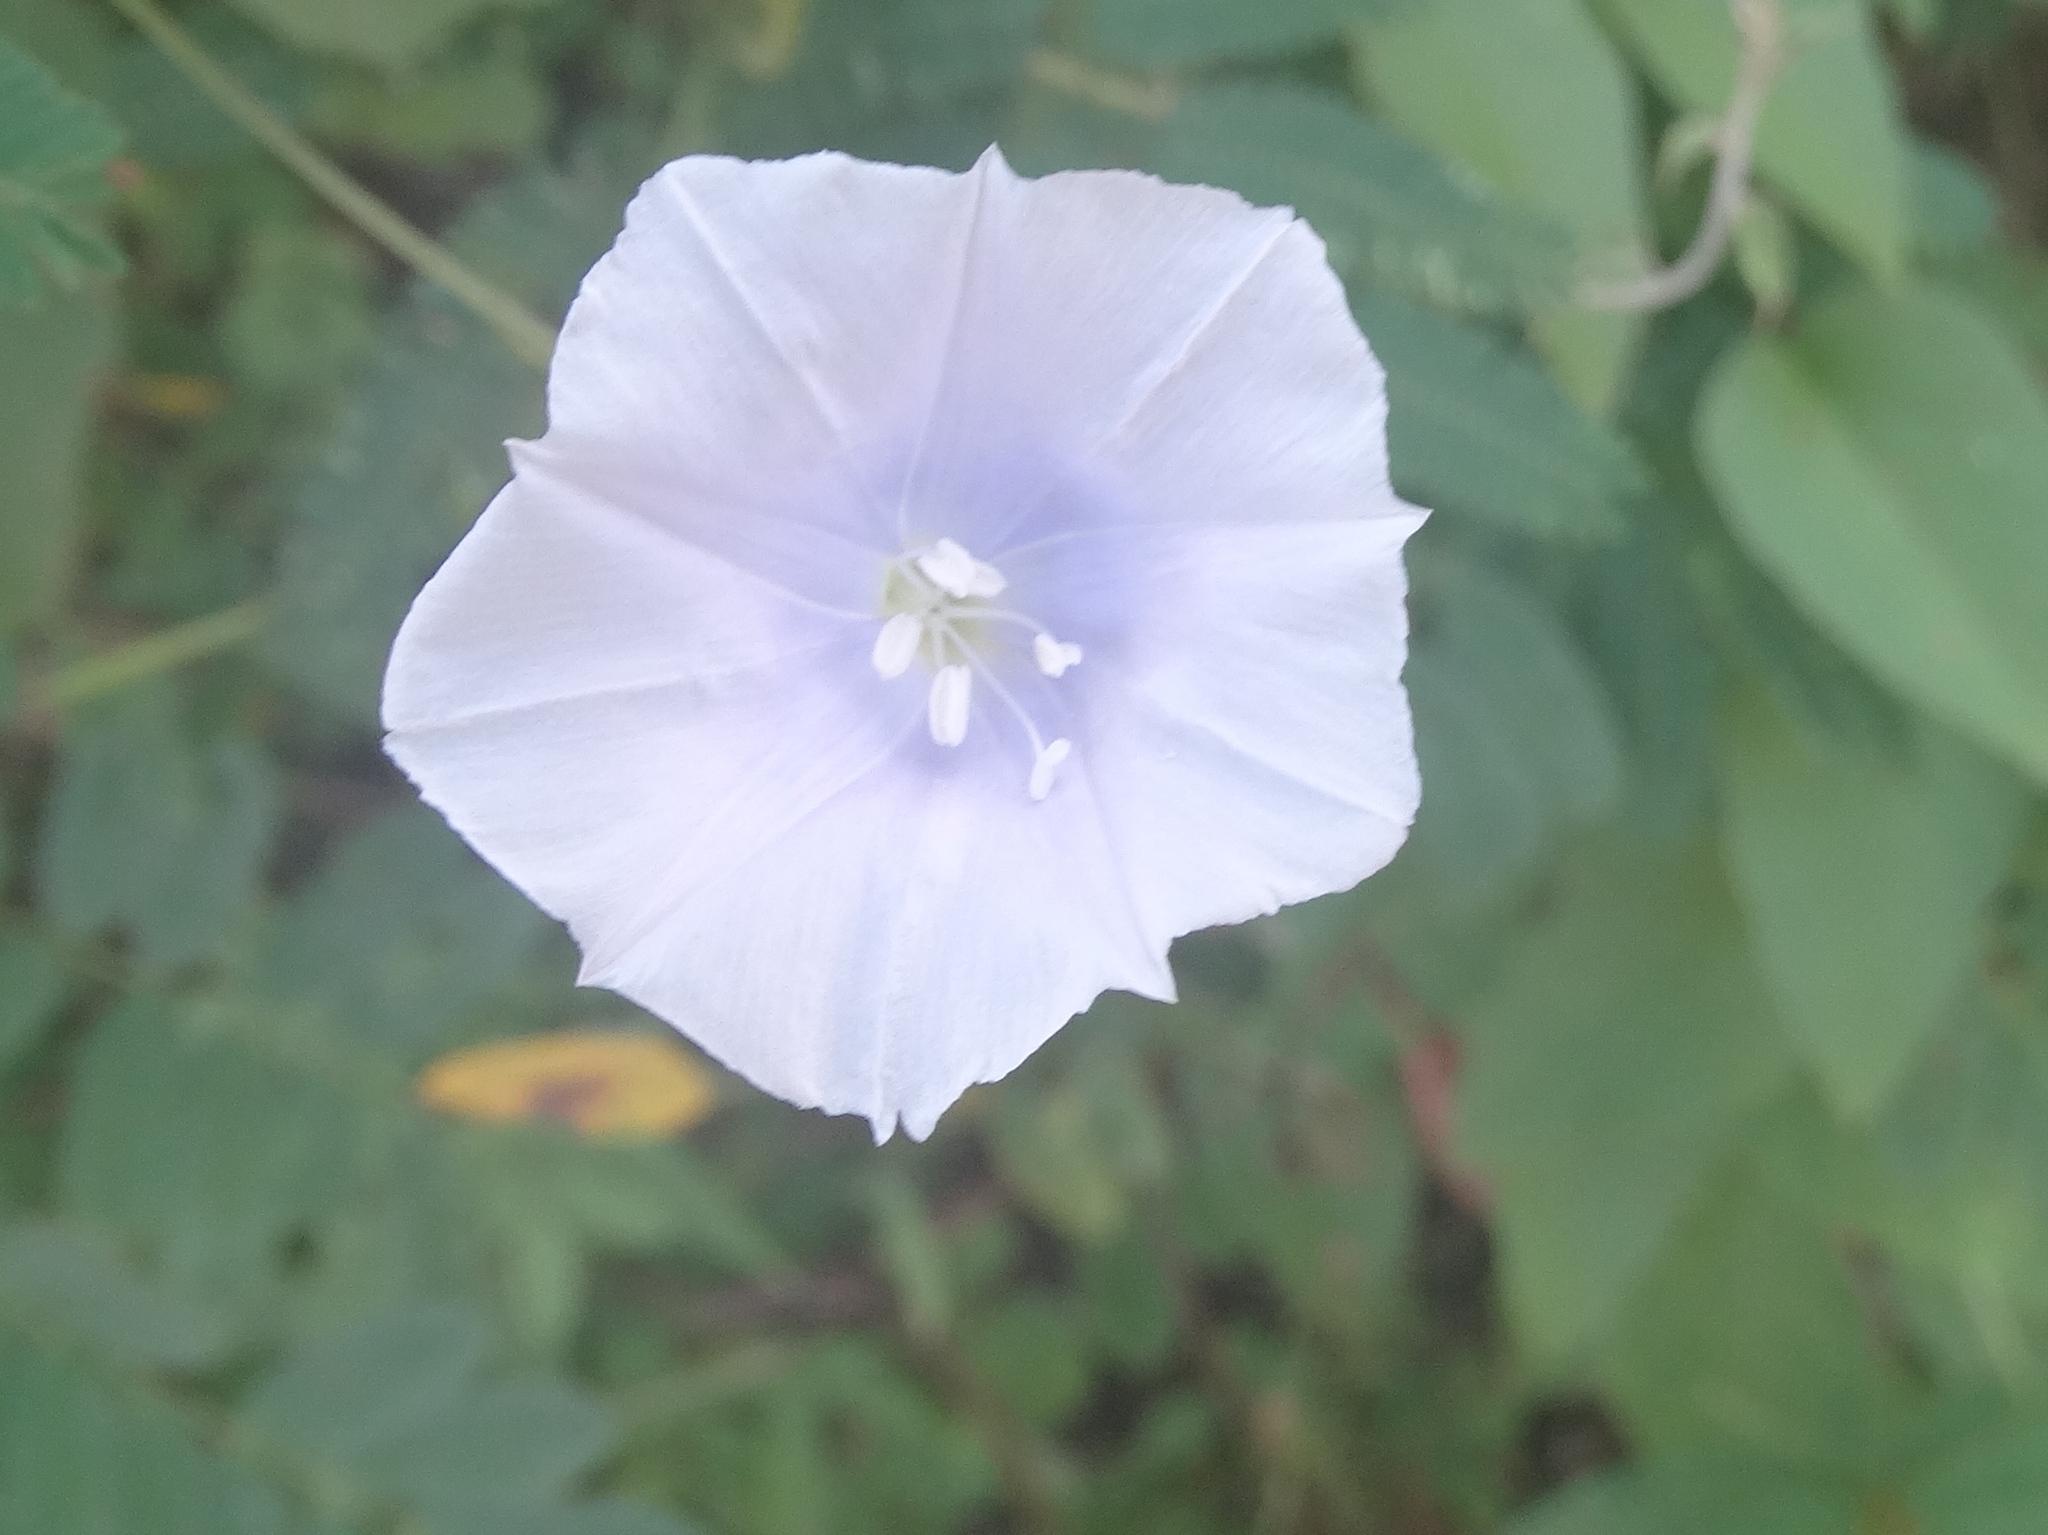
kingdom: Plantae
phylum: Tracheophyta
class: Magnoliopsida
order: Solanales
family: Convolvulaceae
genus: Jacquemontia
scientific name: Jacquemontia
